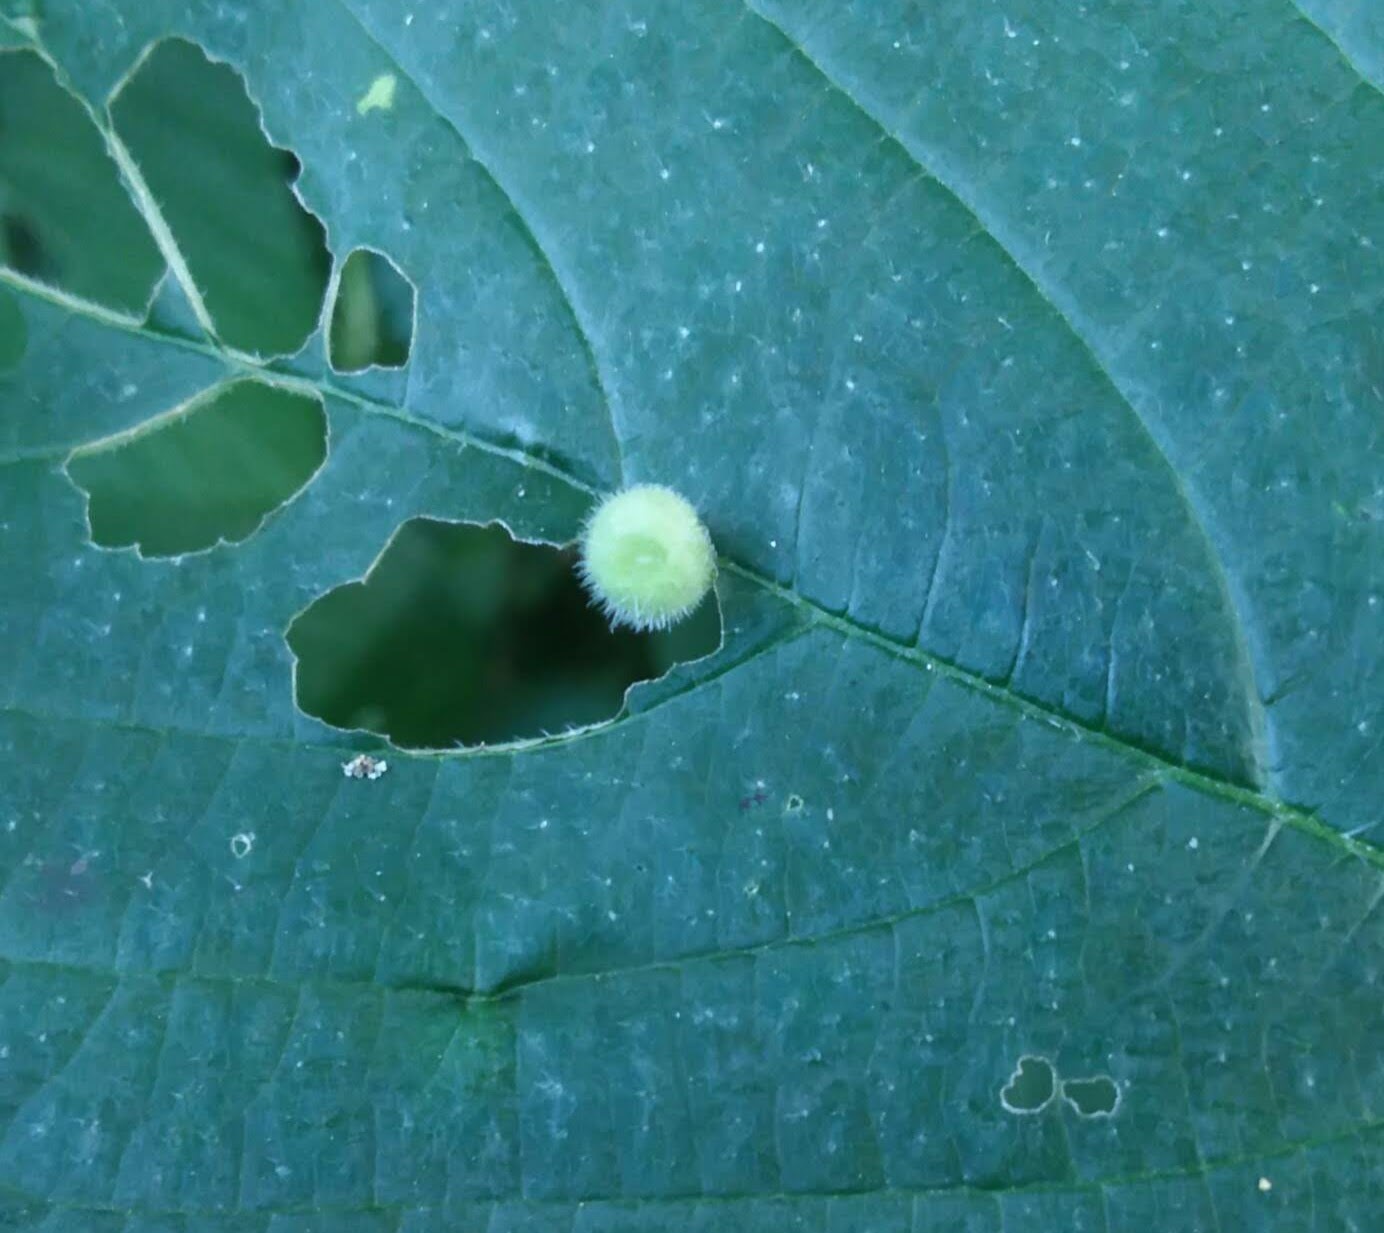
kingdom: Animalia
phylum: Arthropoda
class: Insecta
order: Diptera
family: Cecidomyiidae
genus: Dasineura
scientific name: Dasineura pilosa
